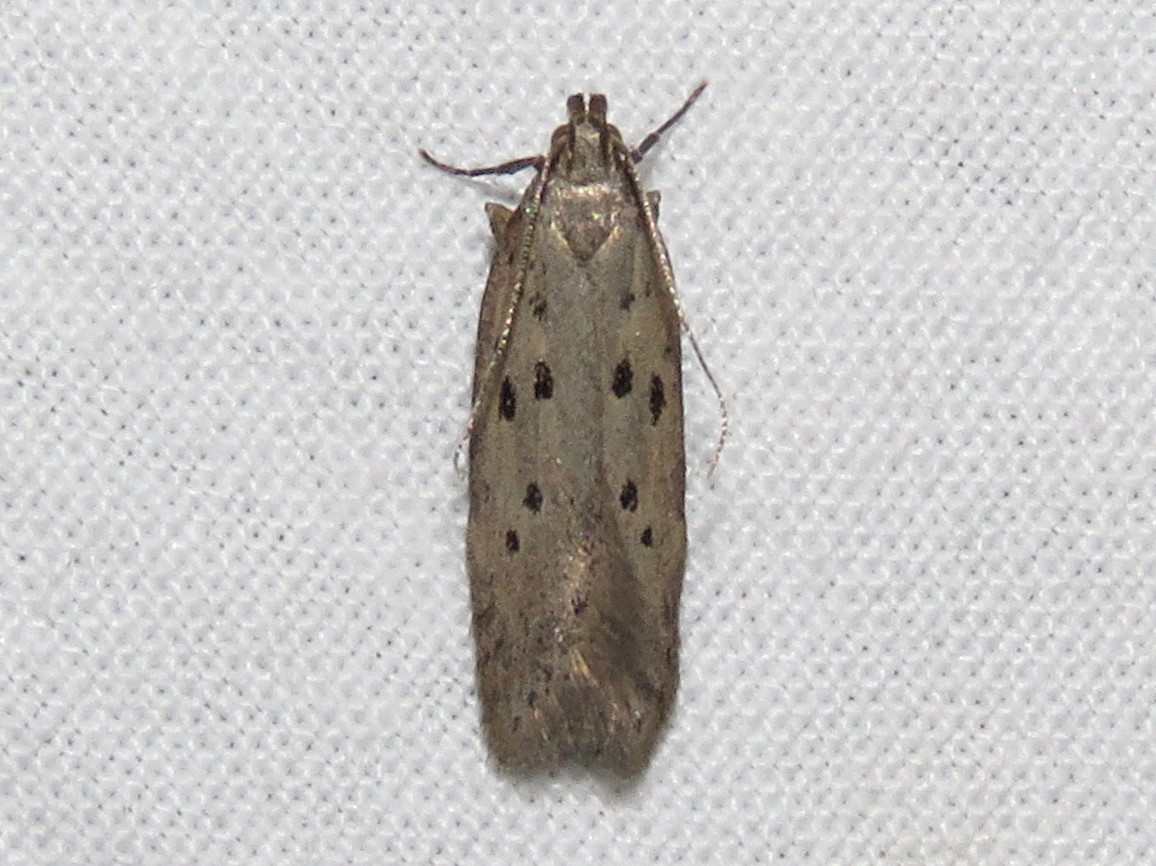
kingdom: Animalia
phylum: Arthropoda
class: Insecta
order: Lepidoptera
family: Gelechiidae
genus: Athrips
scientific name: Athrips mouffetella
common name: Dotted grey groundling
